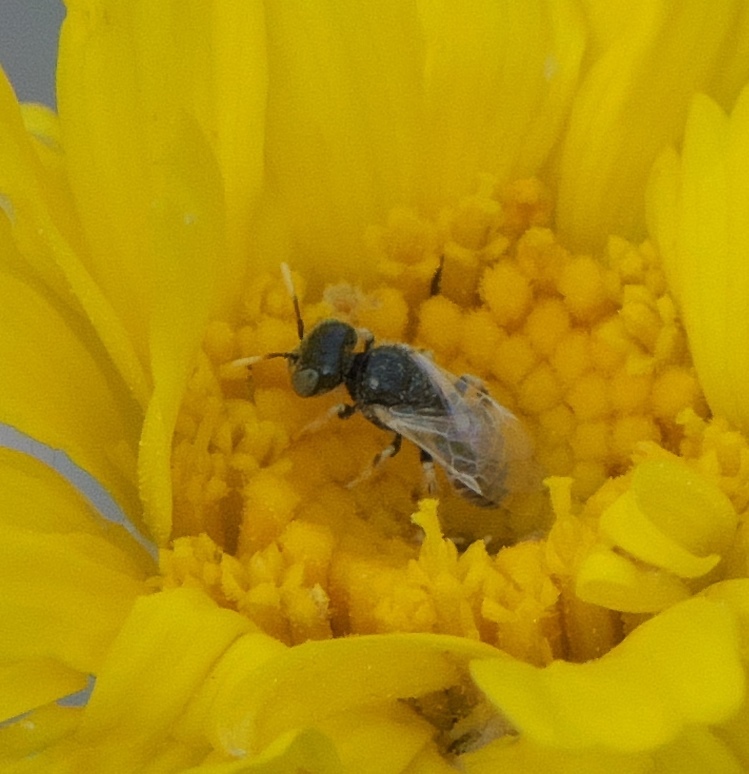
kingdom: Animalia
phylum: Arthropoda
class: Insecta
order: Hymenoptera
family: Andrenidae
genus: Perdita
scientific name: Perdita callicerata
